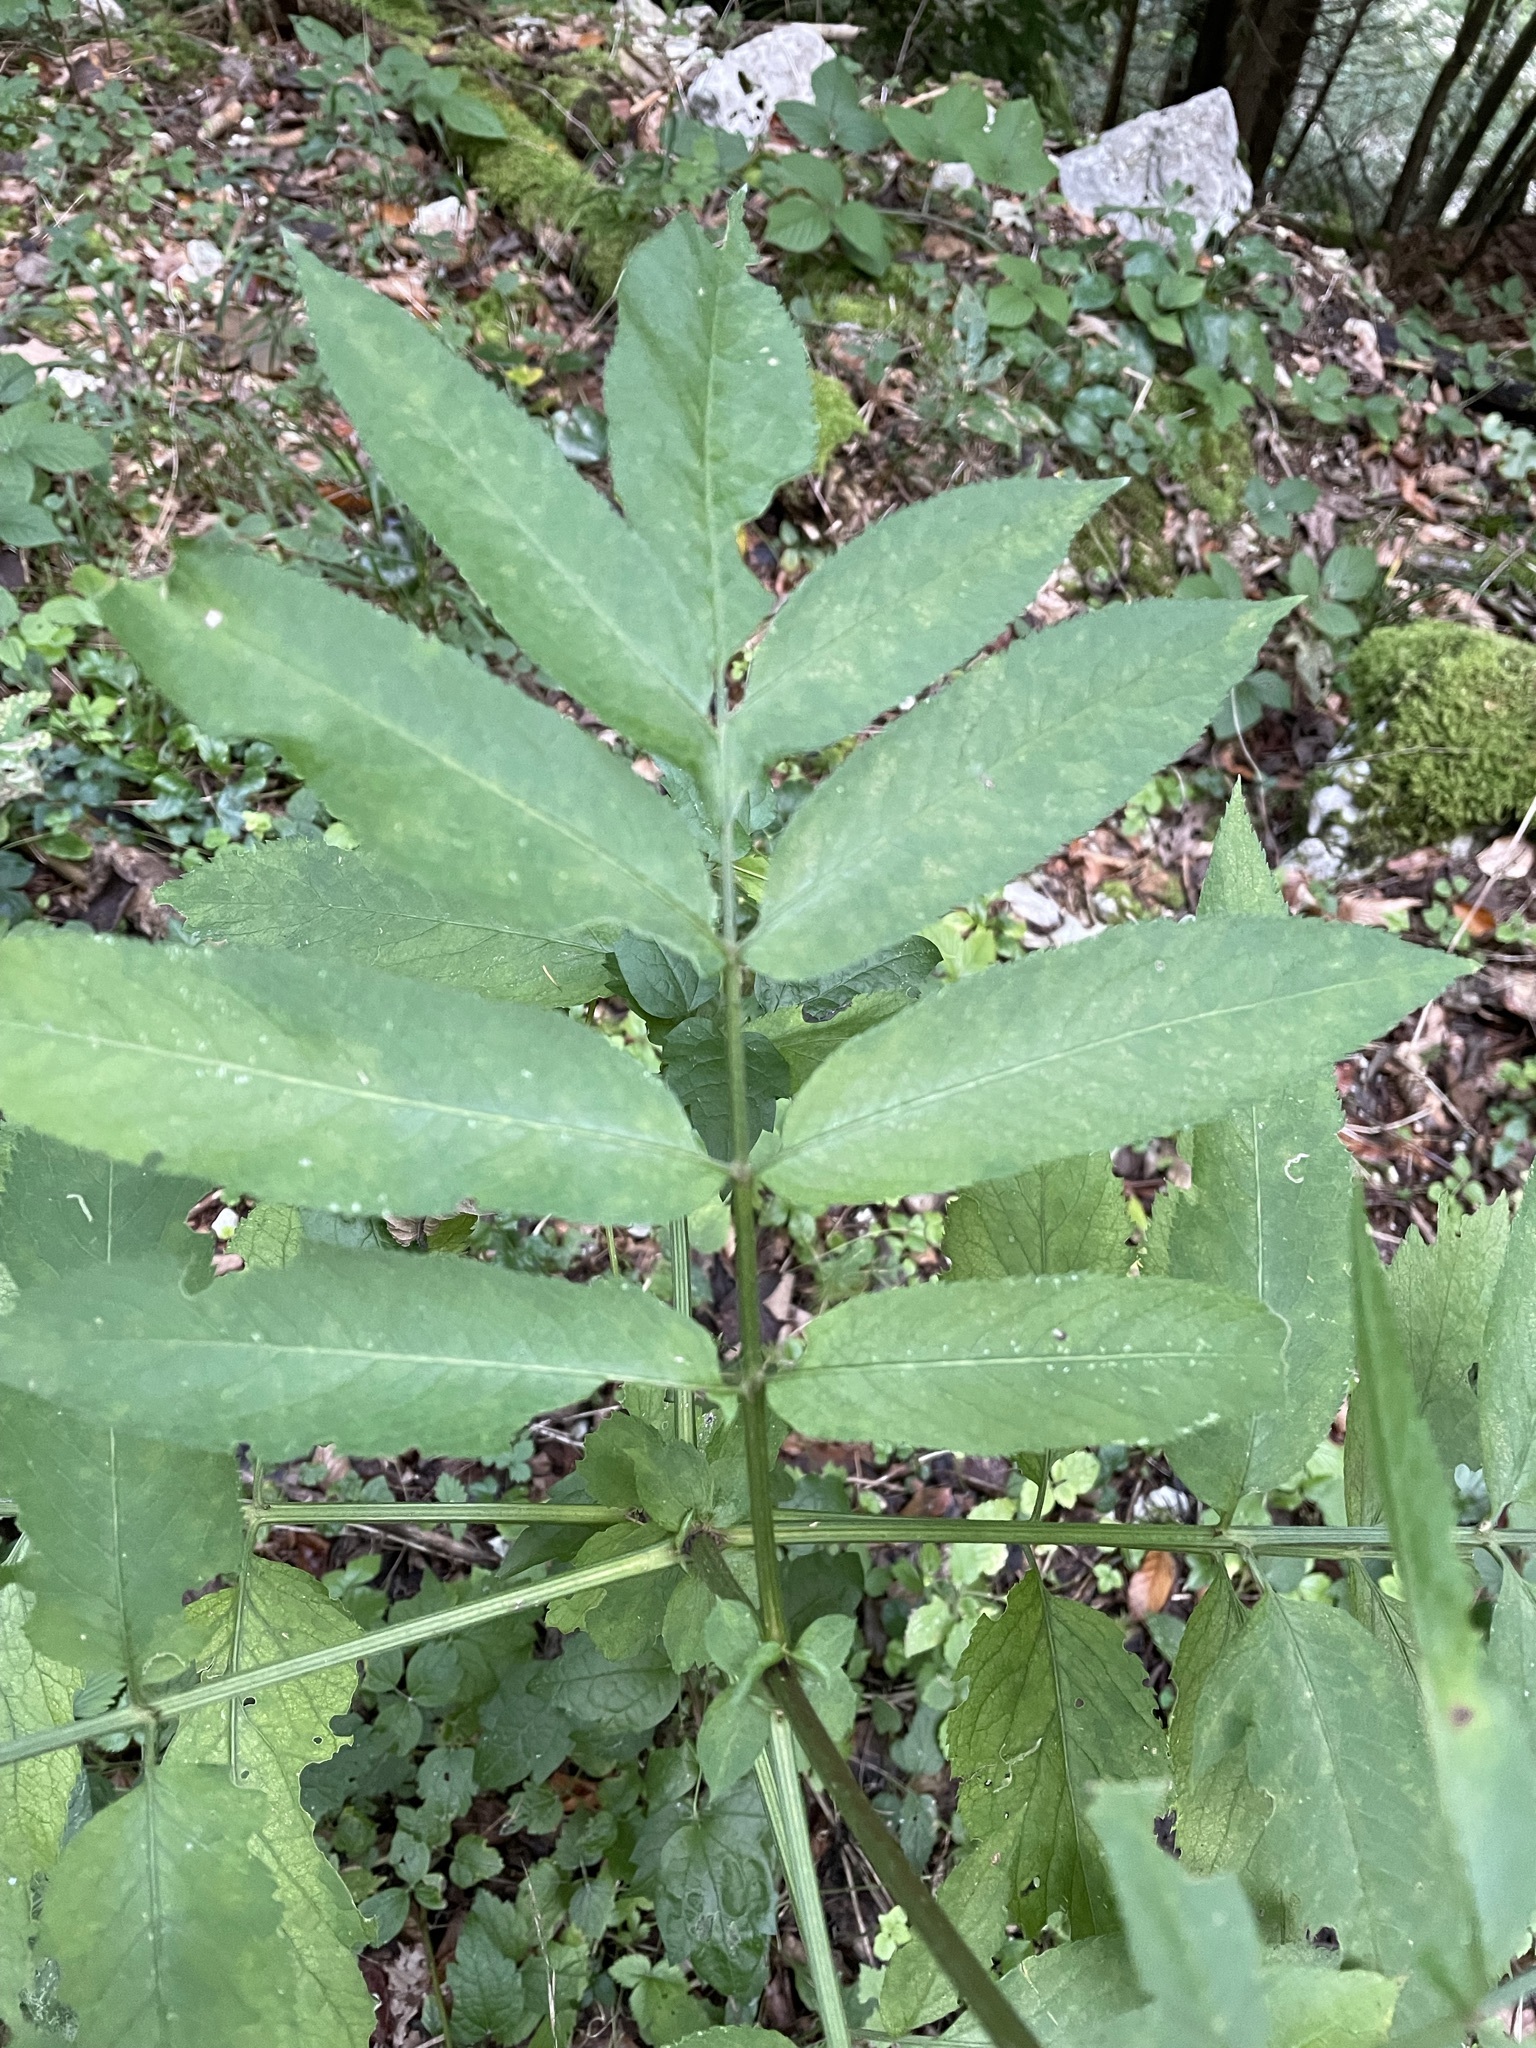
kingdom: Plantae
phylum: Tracheophyta
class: Magnoliopsida
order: Dipsacales
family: Viburnaceae
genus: Sambucus
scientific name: Sambucus ebulus
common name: Dwarf elder
